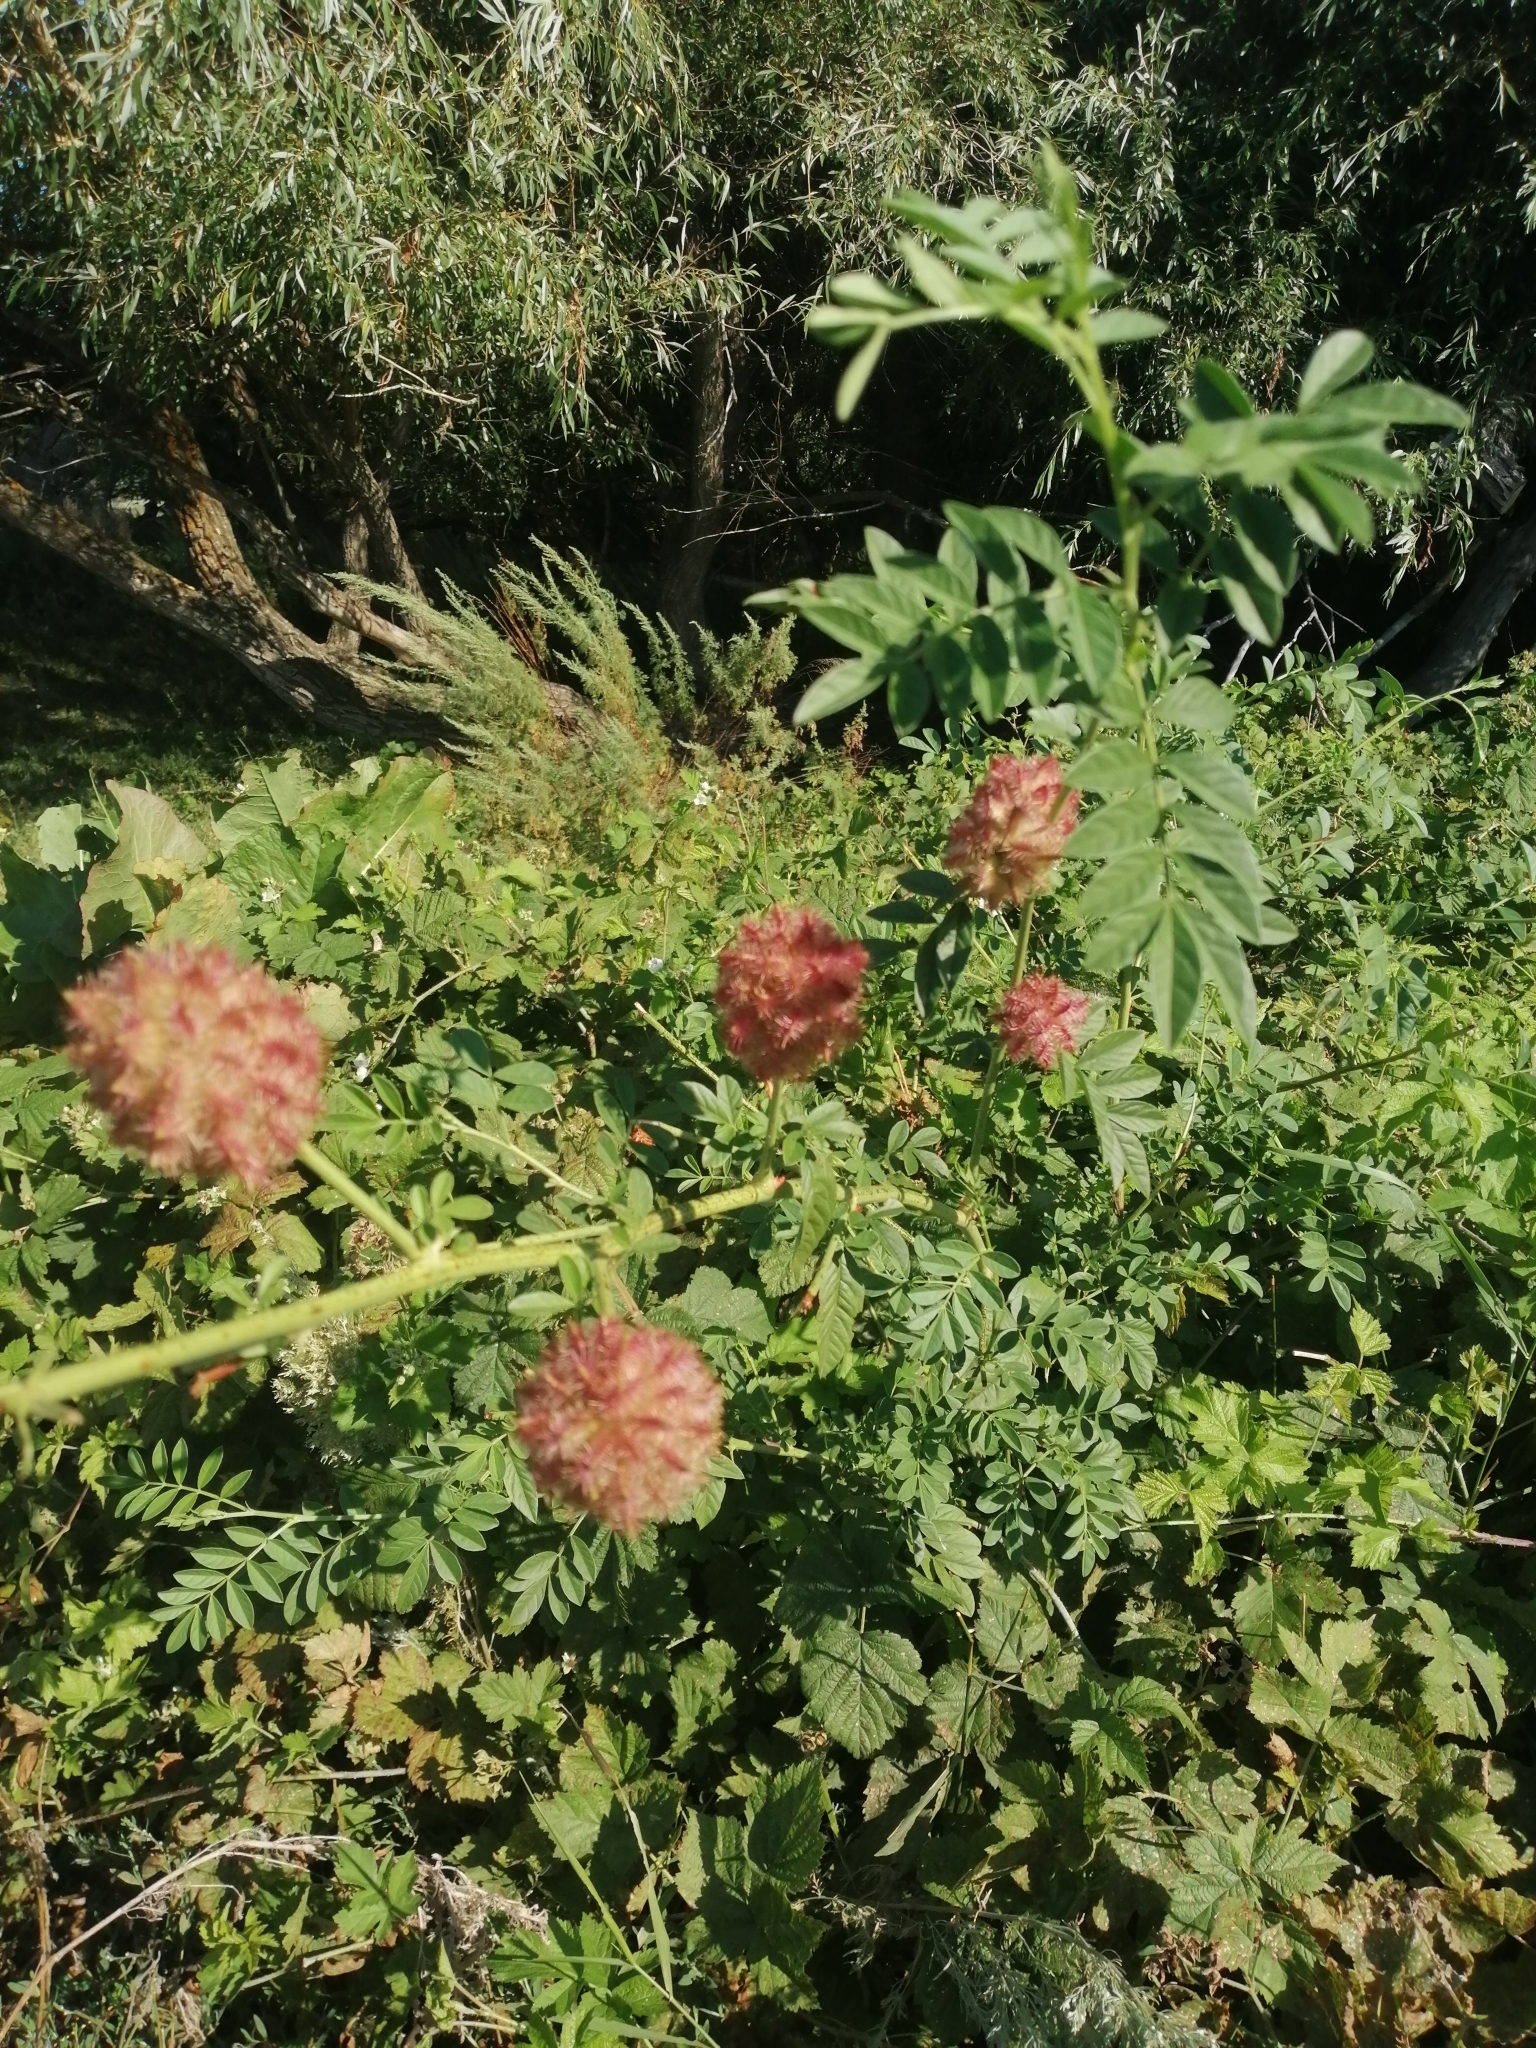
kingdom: Plantae
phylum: Tracheophyta
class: Magnoliopsida
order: Fabales
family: Fabaceae
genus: Glycyrrhiza
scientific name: Glycyrrhiza echinata
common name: German liquorice
